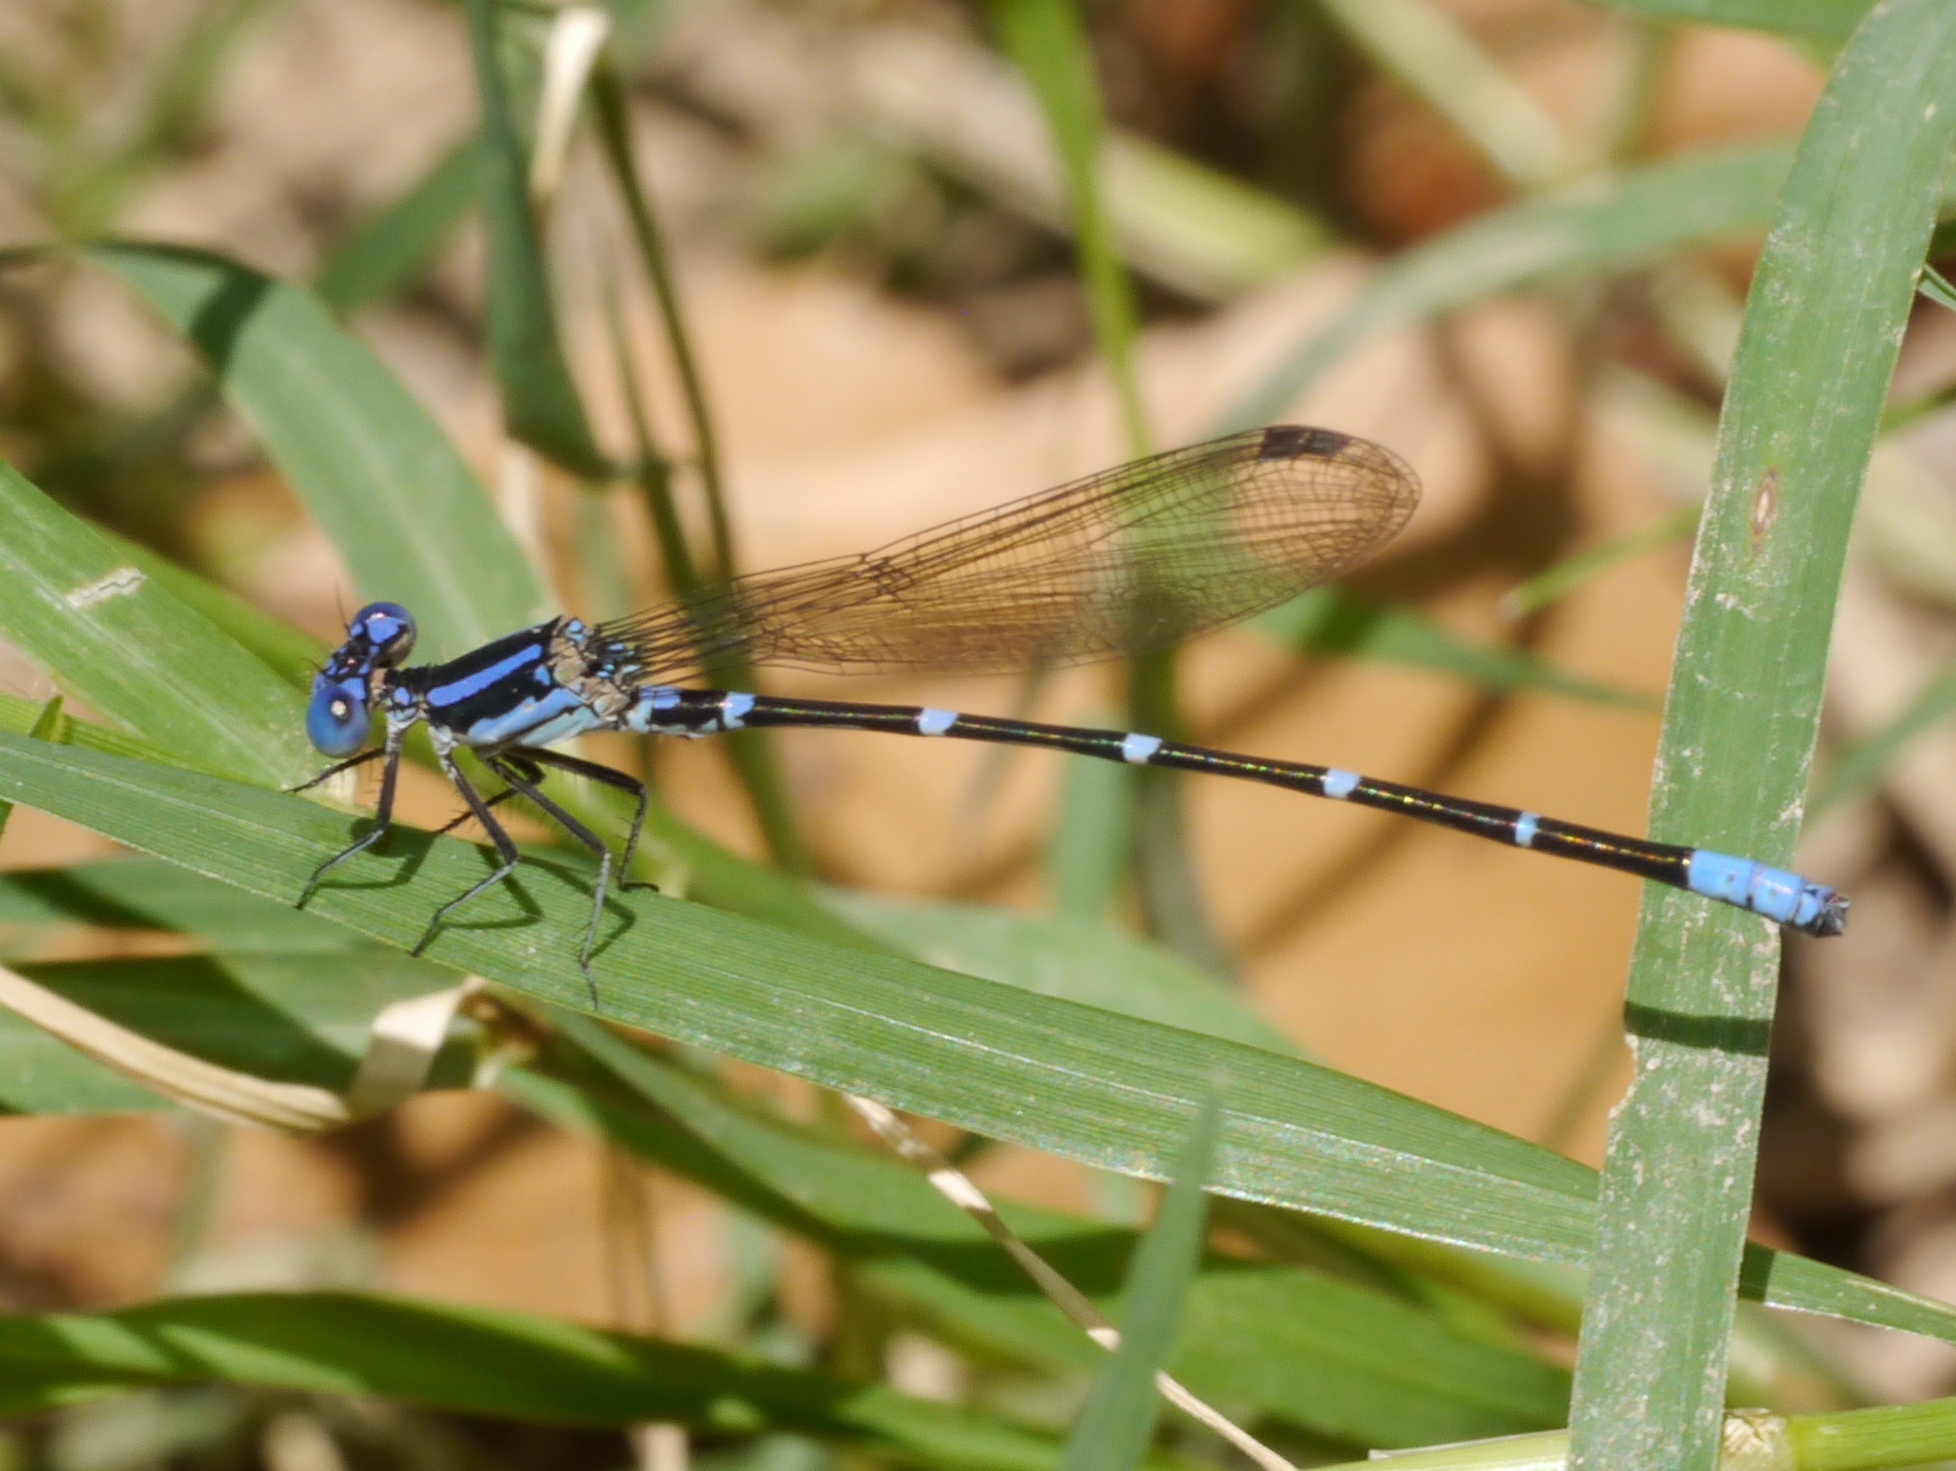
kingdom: Animalia
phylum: Arthropoda
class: Insecta
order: Odonata
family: Coenagrionidae
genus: Argia
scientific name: Argia sedula
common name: Blue-ringed dancer
